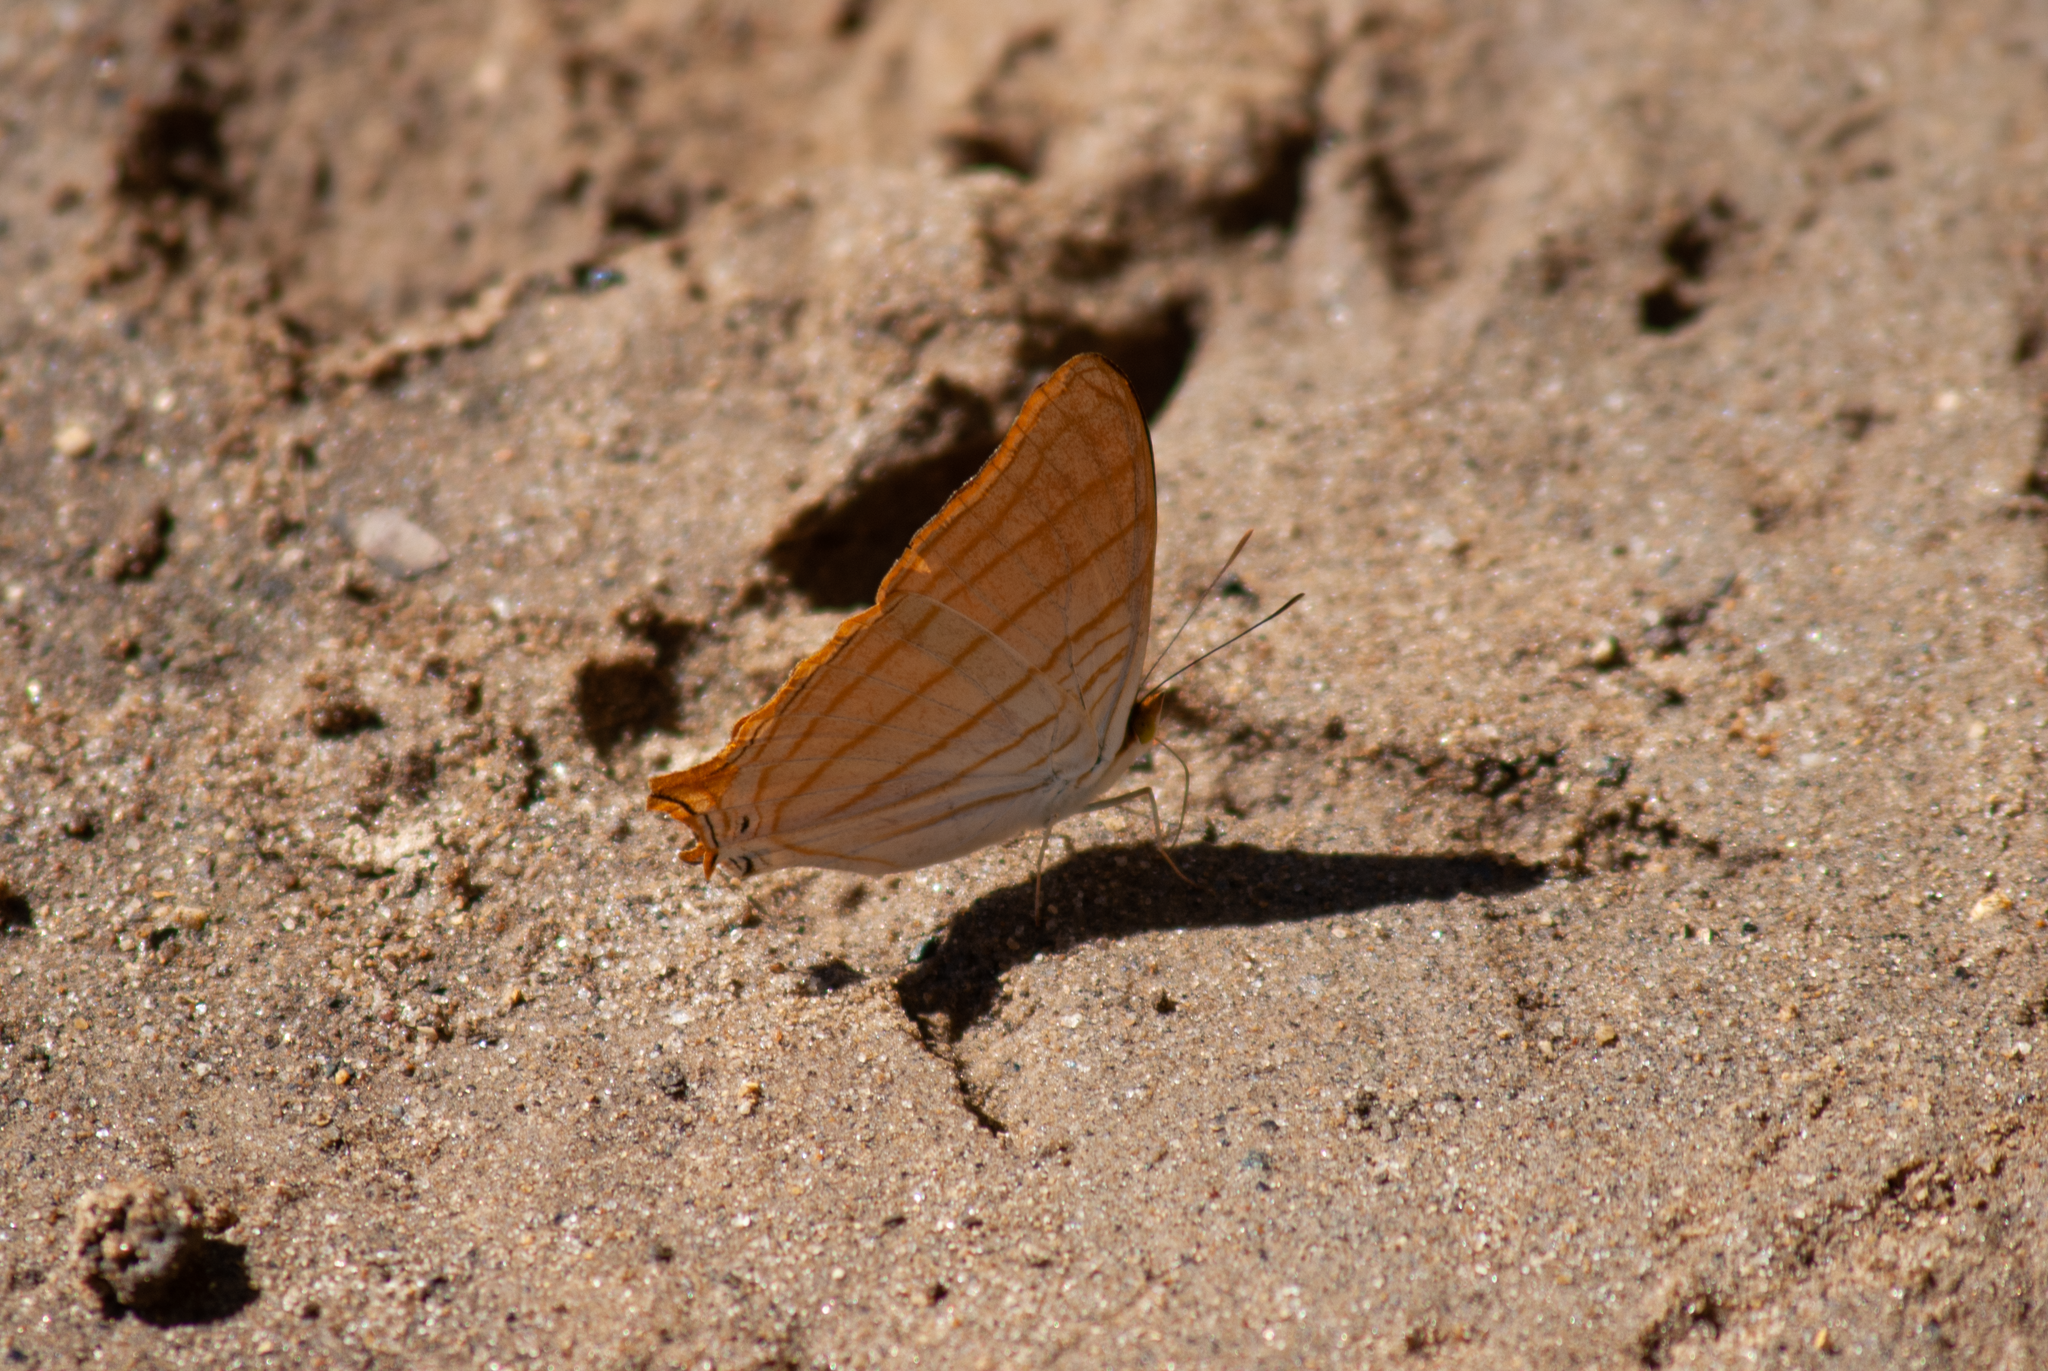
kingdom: Animalia
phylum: Arthropoda
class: Insecta
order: Lepidoptera
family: Nymphalidae
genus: Marpesia
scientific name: Marpesia berania
